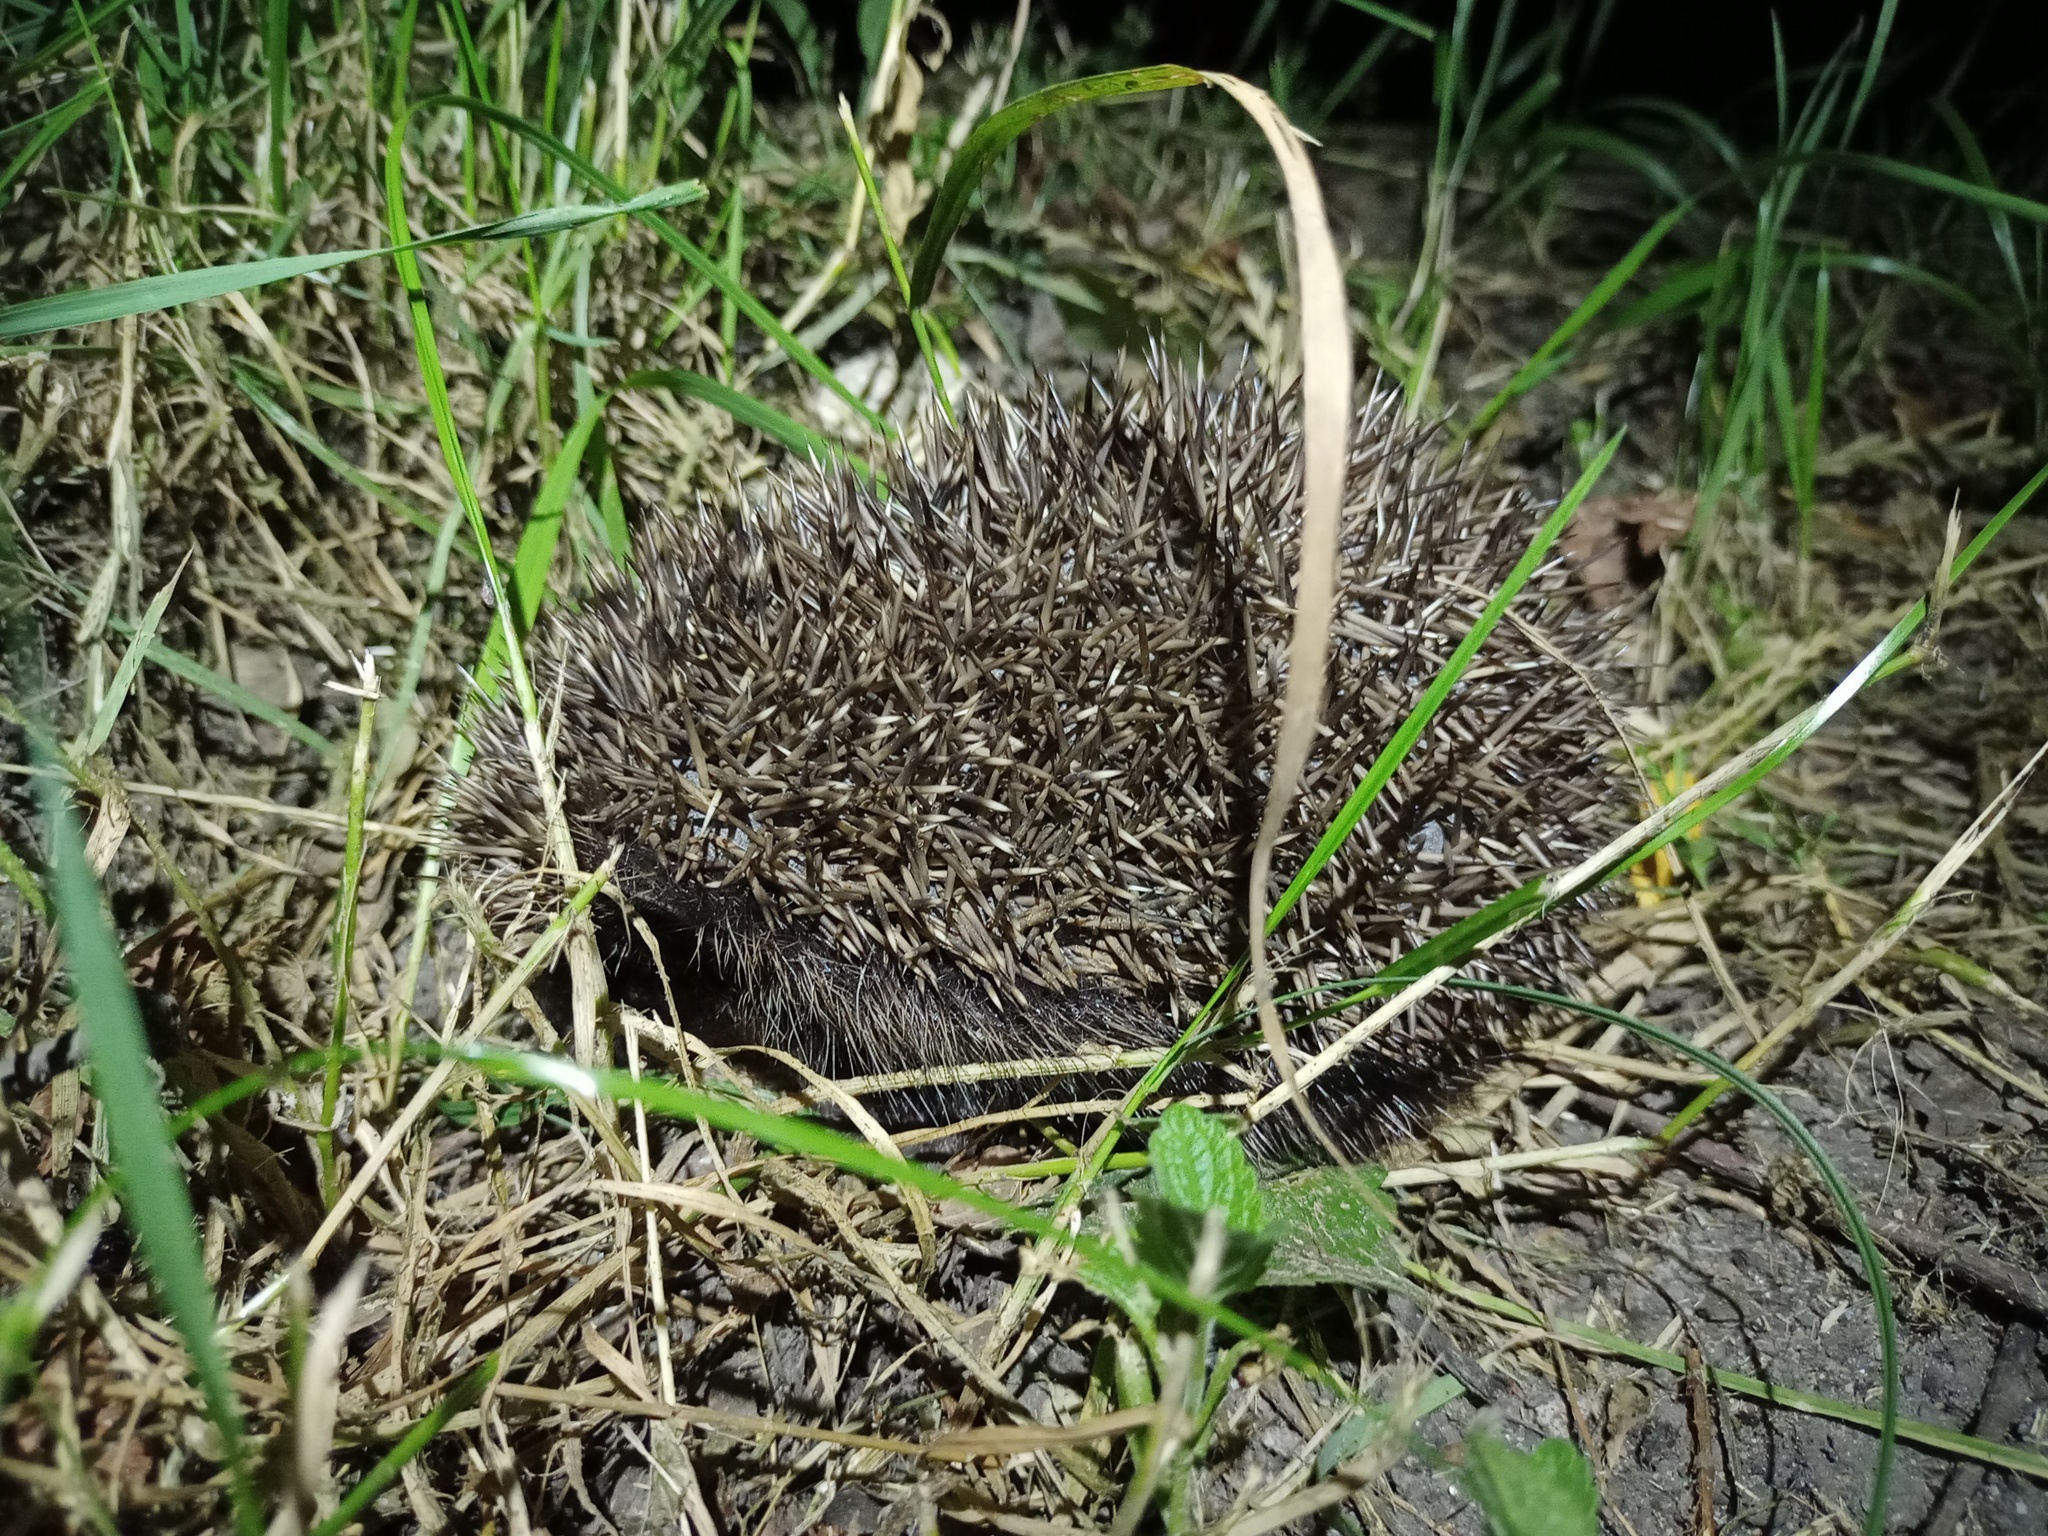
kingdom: Animalia
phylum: Chordata
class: Mammalia
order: Erinaceomorpha
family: Erinaceidae
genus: Erinaceus
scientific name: Erinaceus roumanicus
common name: Northern white-breasted hedgehog
